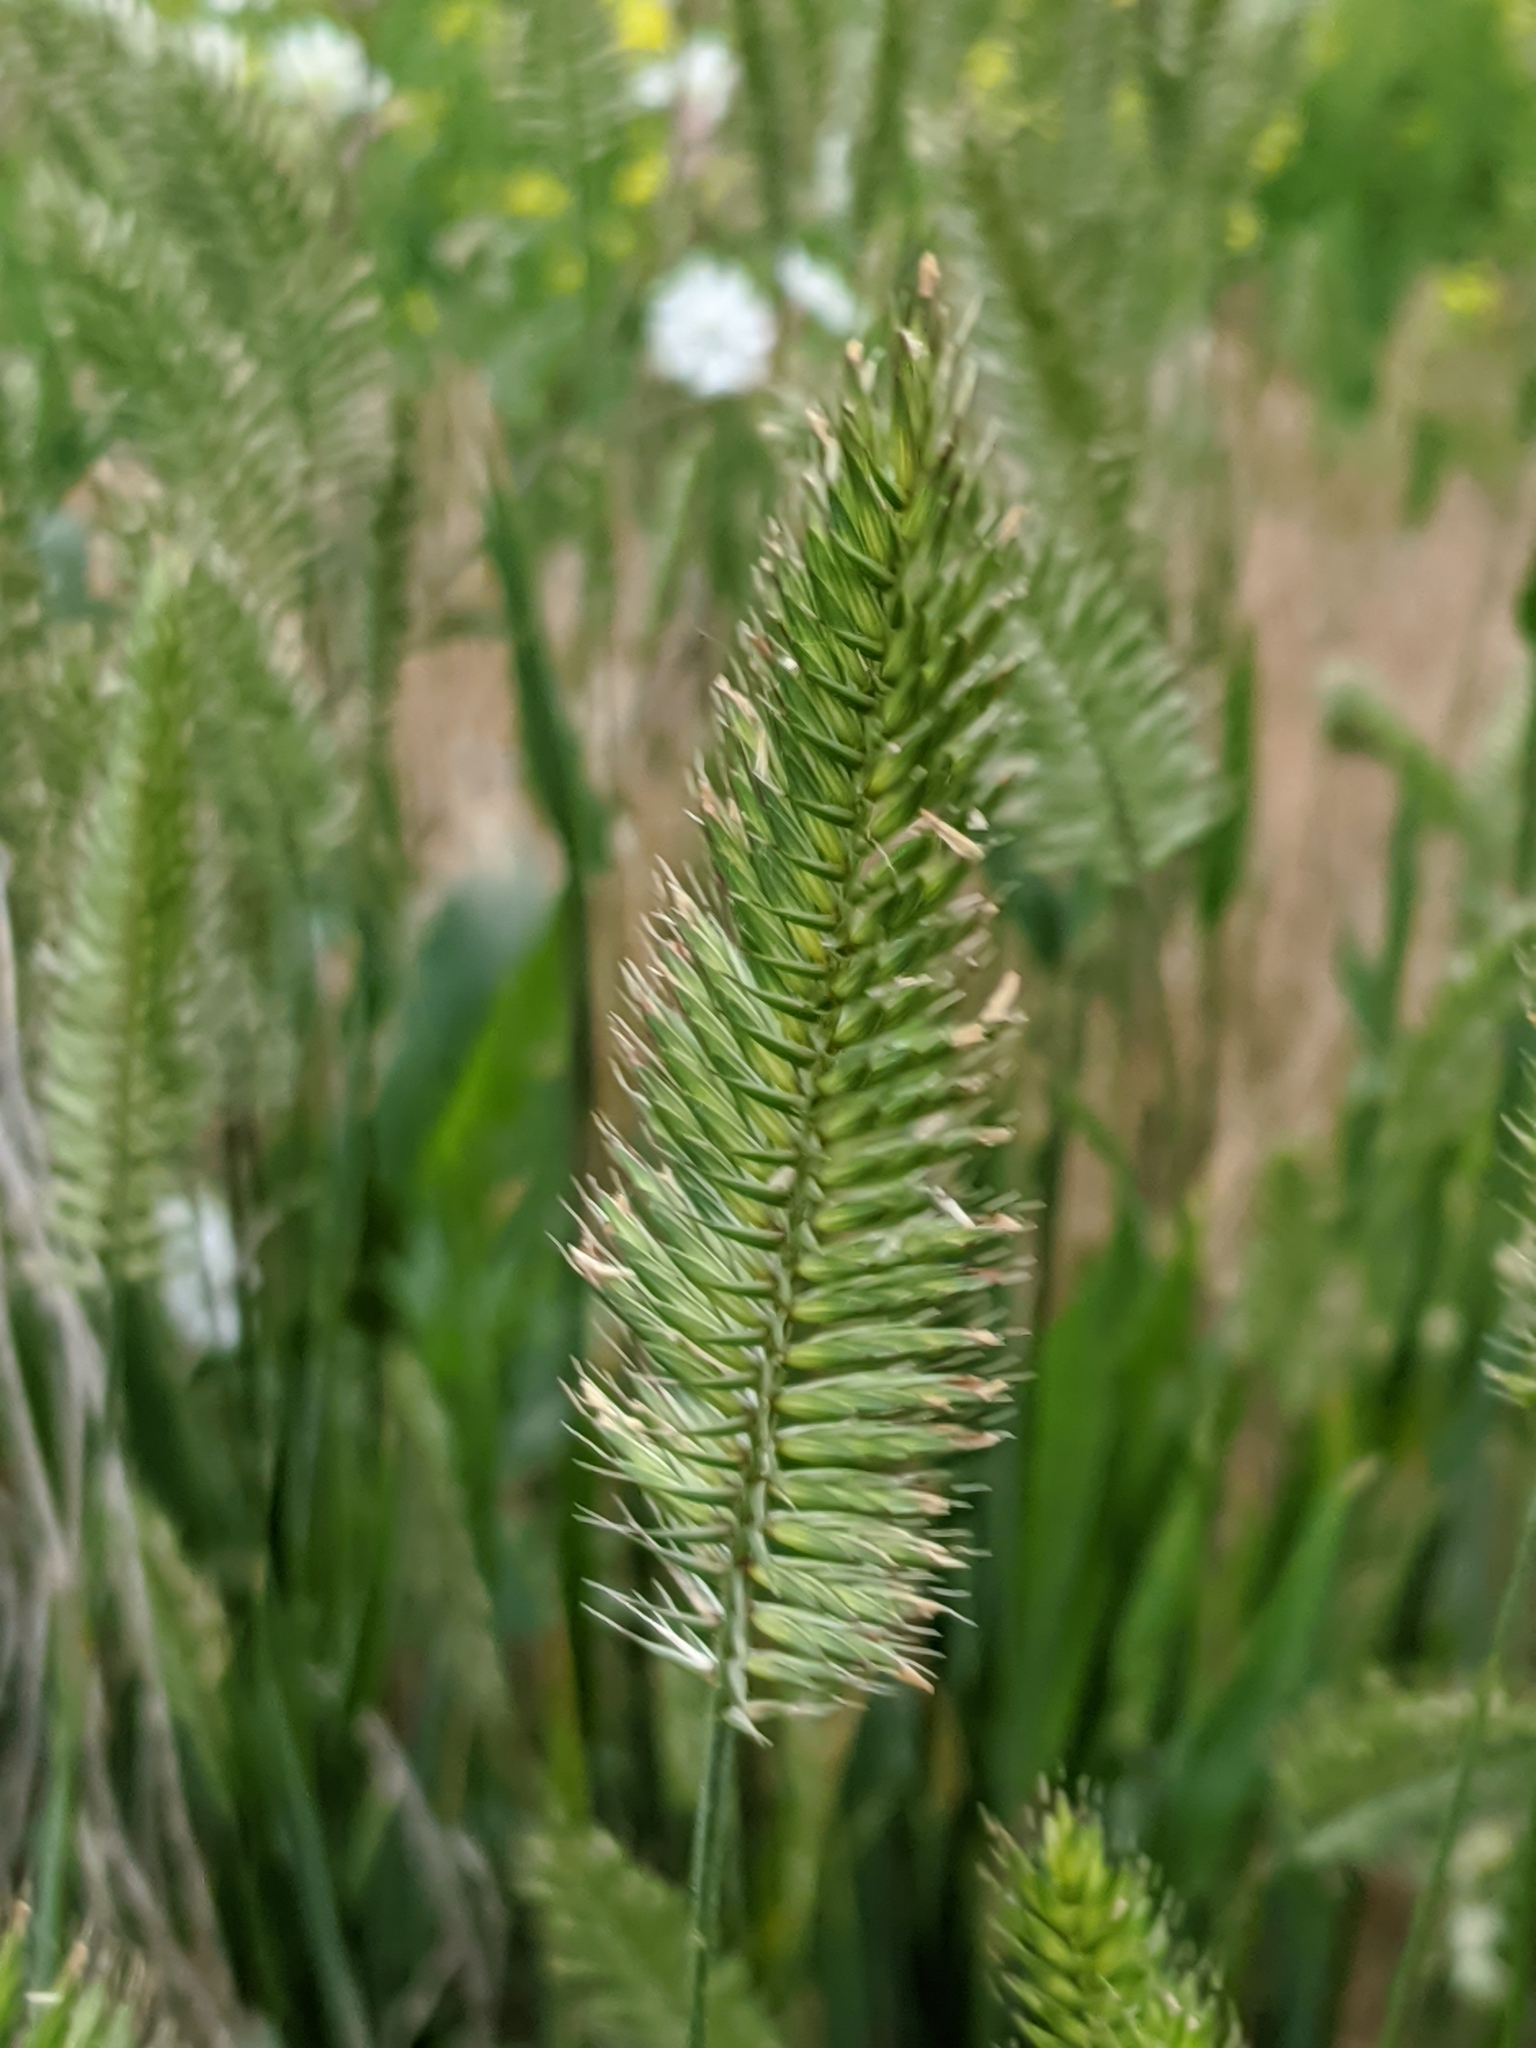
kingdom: Plantae
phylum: Tracheophyta
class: Liliopsida
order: Poales
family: Poaceae
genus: Agropyron
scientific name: Agropyron cristatum
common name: Crested wheatgrass
